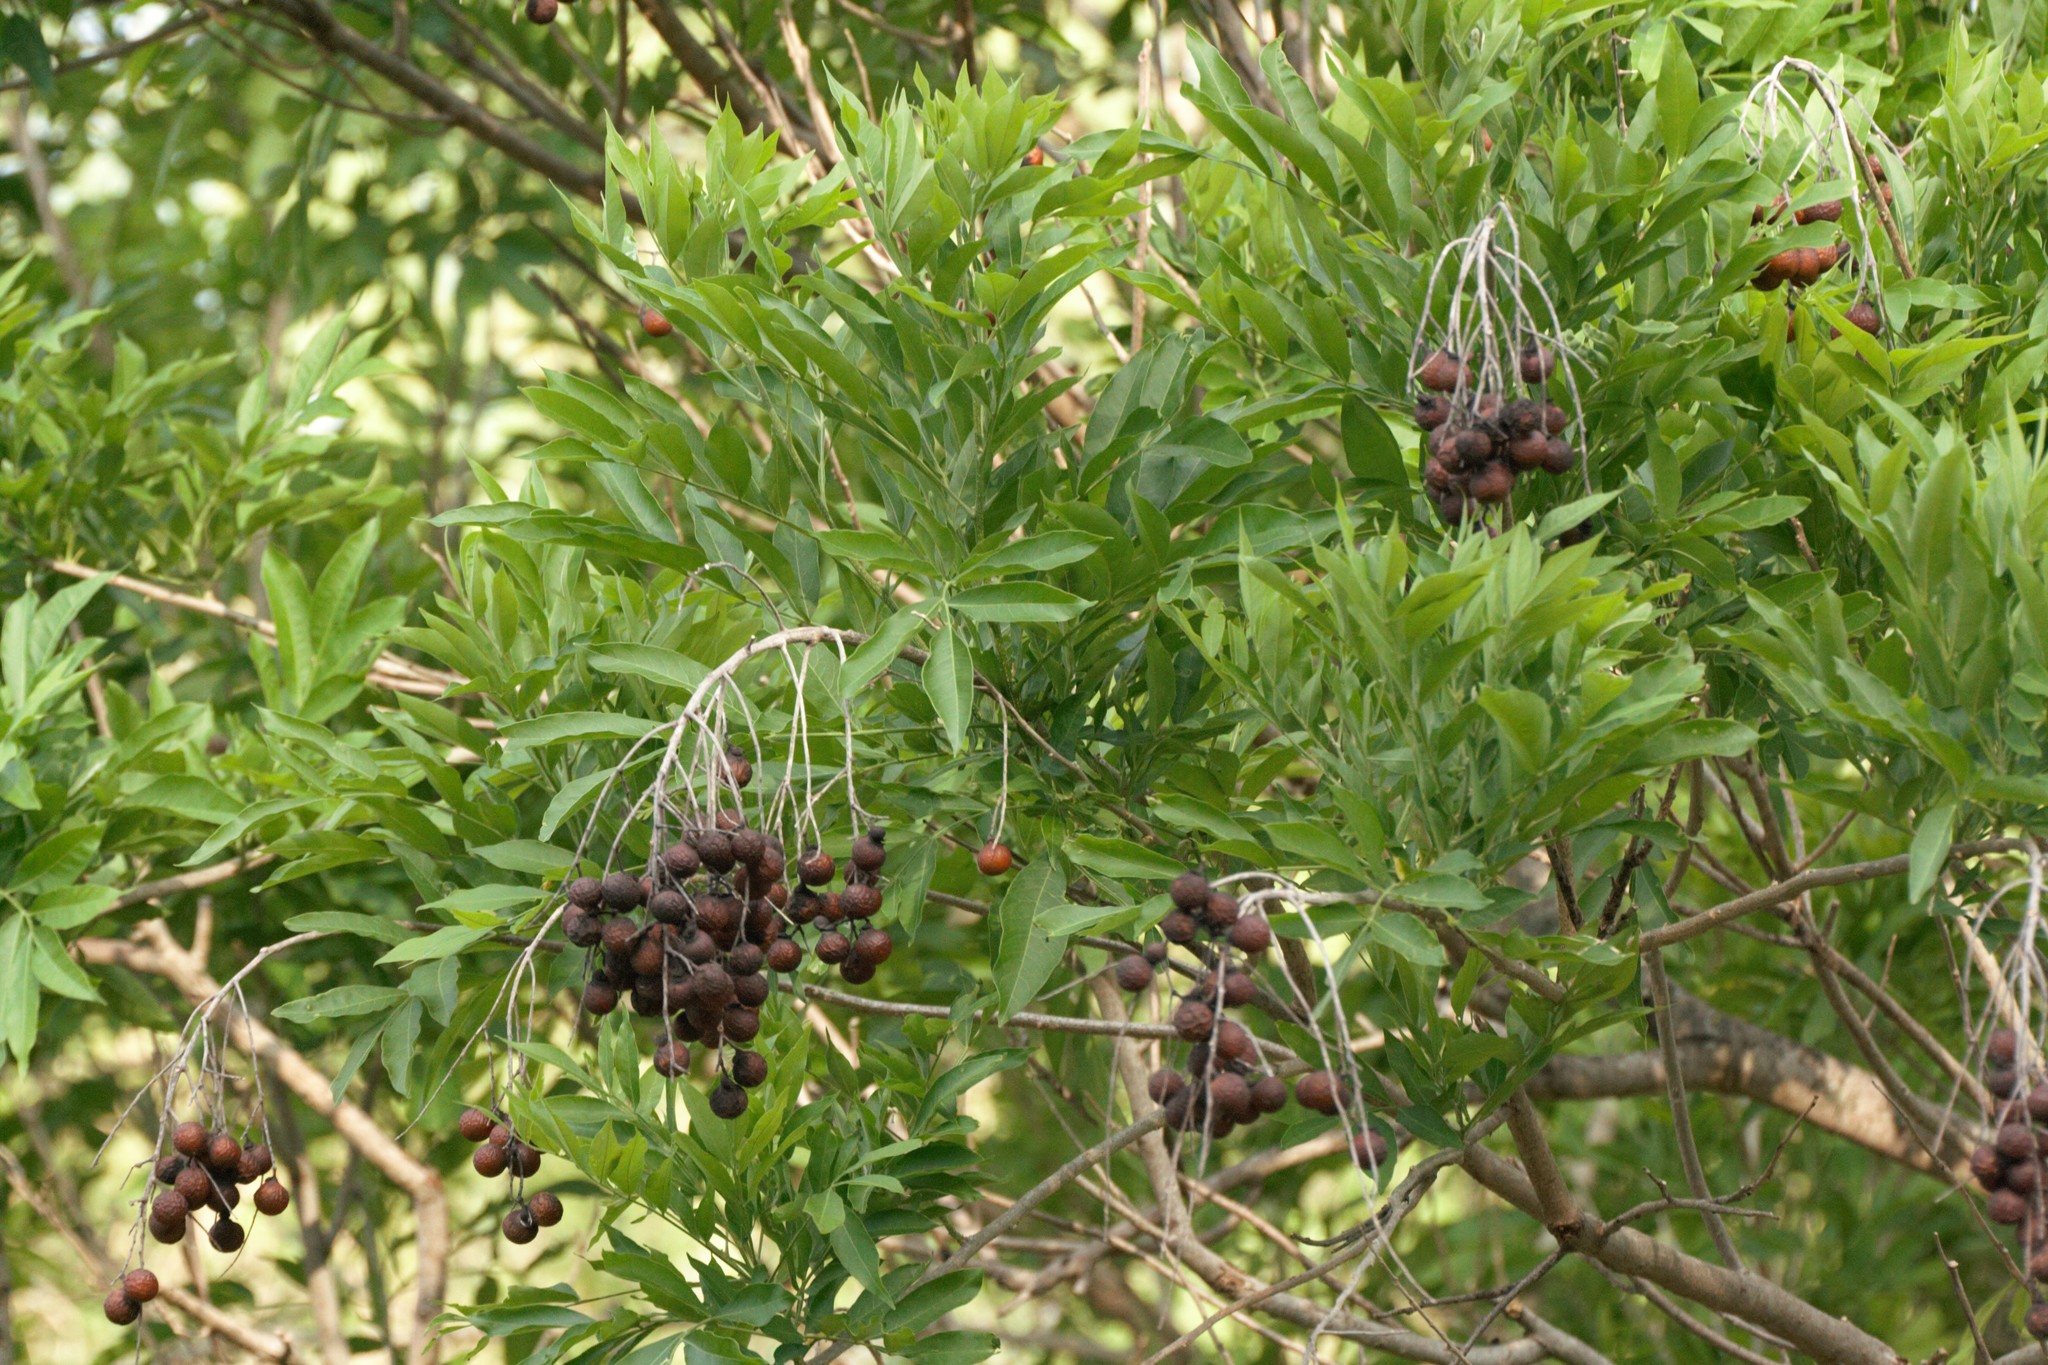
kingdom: Plantae
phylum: Tracheophyta
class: Magnoliopsida
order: Sapindales
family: Sapindaceae
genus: Sapindus
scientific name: Sapindus saponaria
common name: Wingleaf soapberry
